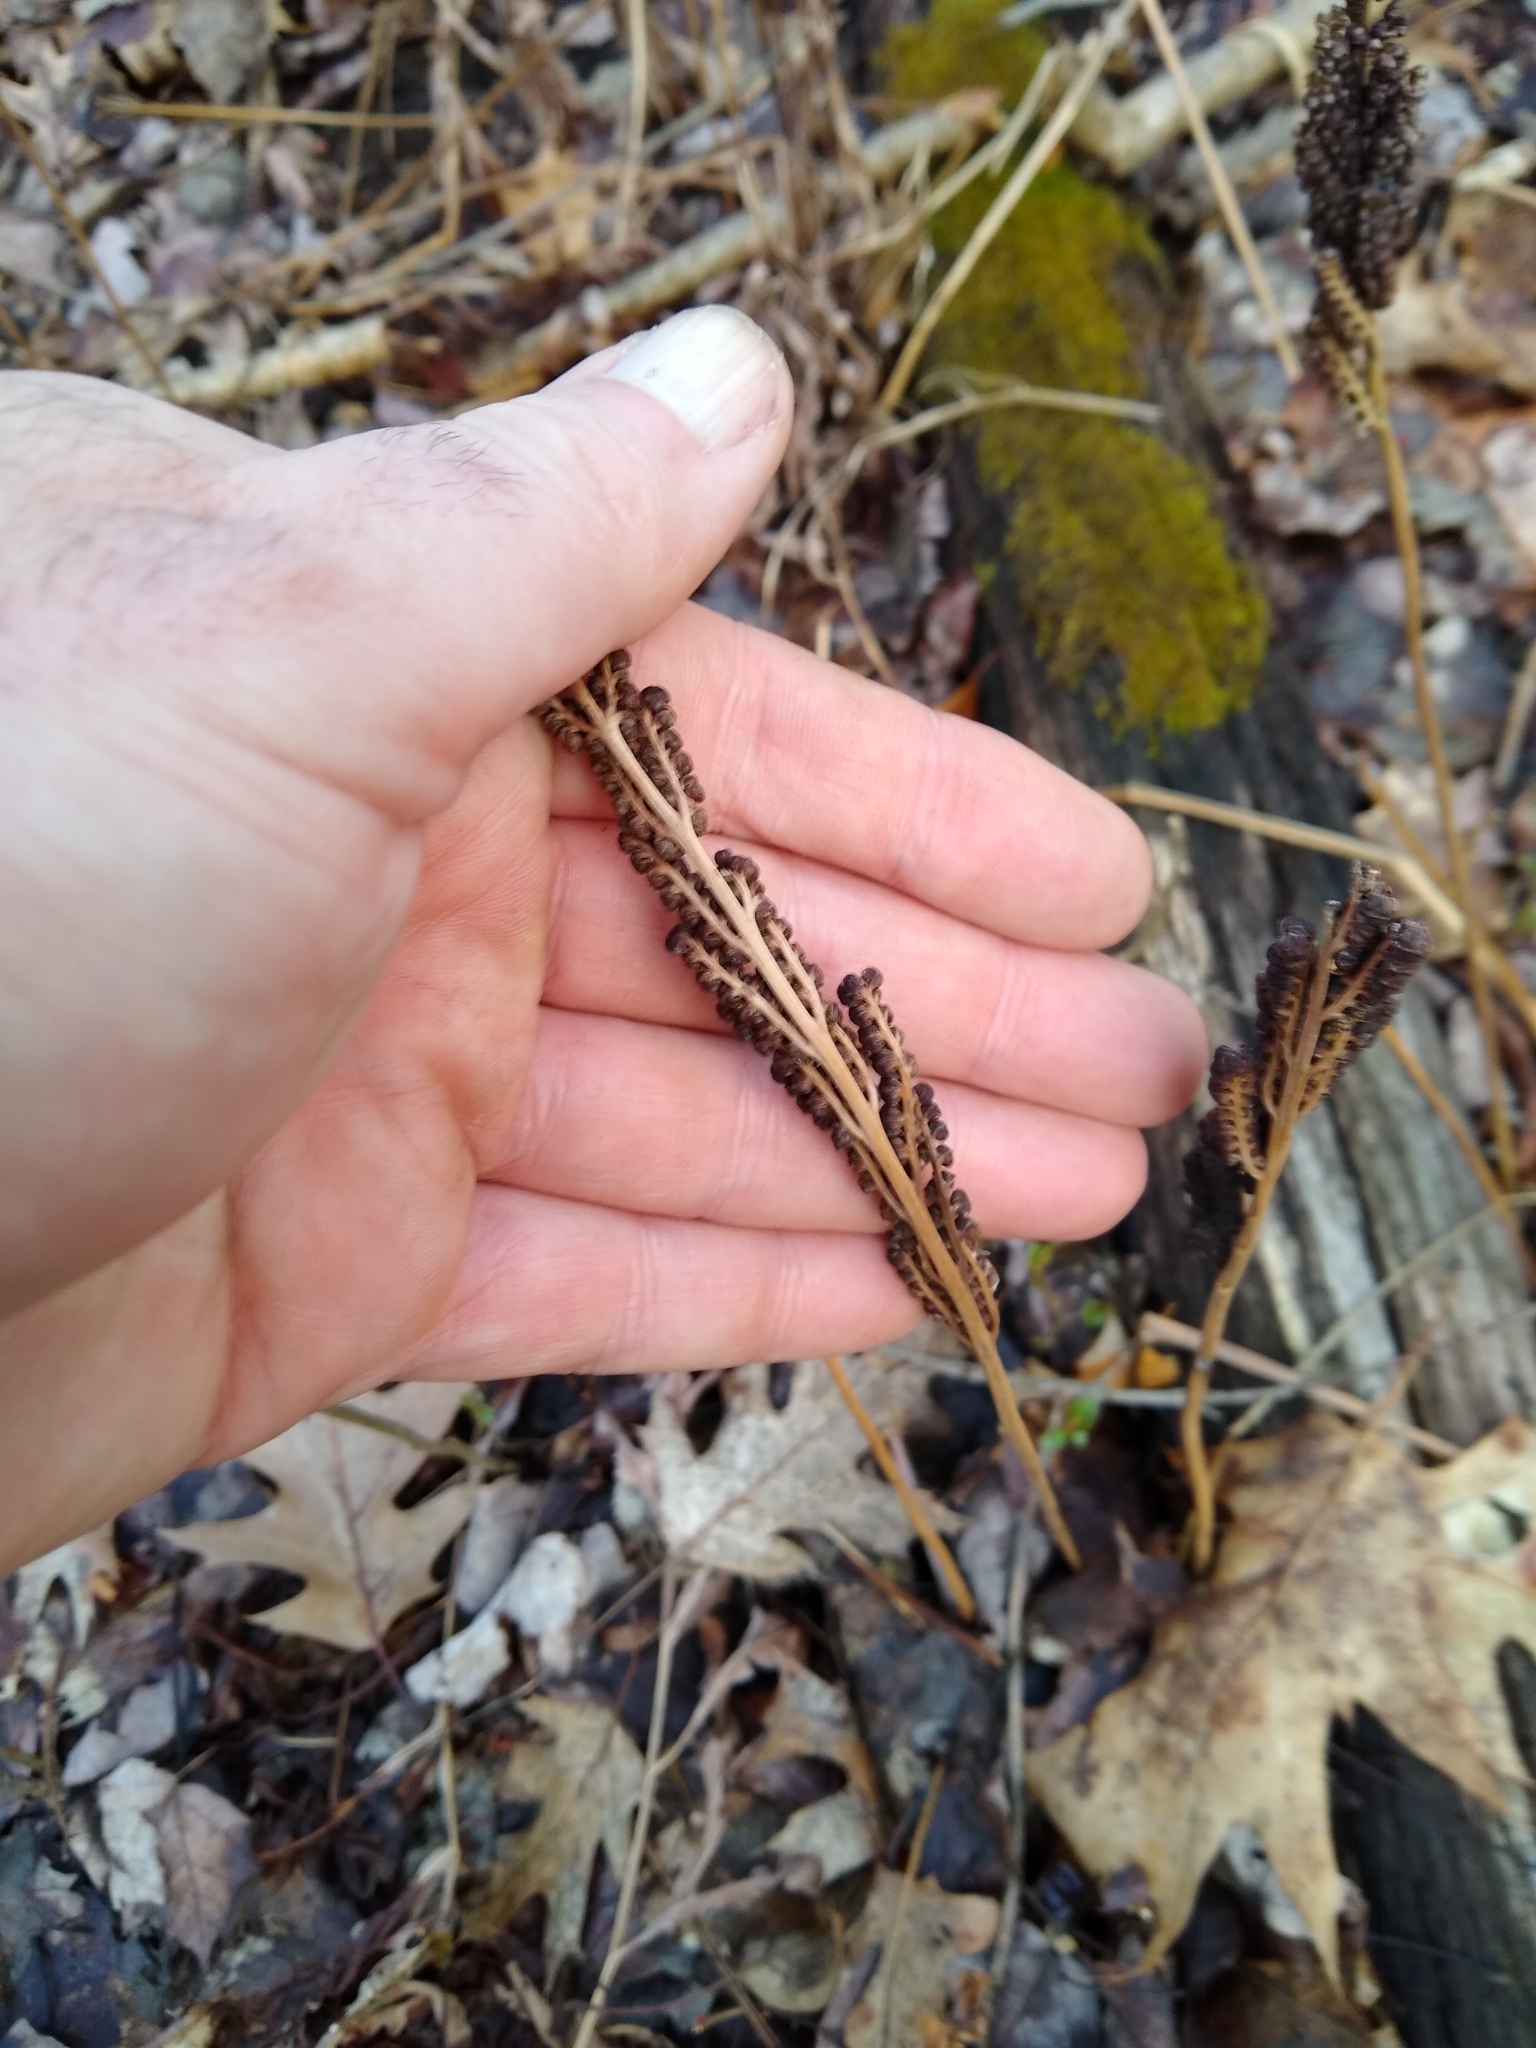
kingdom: Plantae
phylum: Tracheophyta
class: Polypodiopsida
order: Polypodiales
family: Onocleaceae
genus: Onoclea
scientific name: Onoclea sensibilis
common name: Sensitive fern
